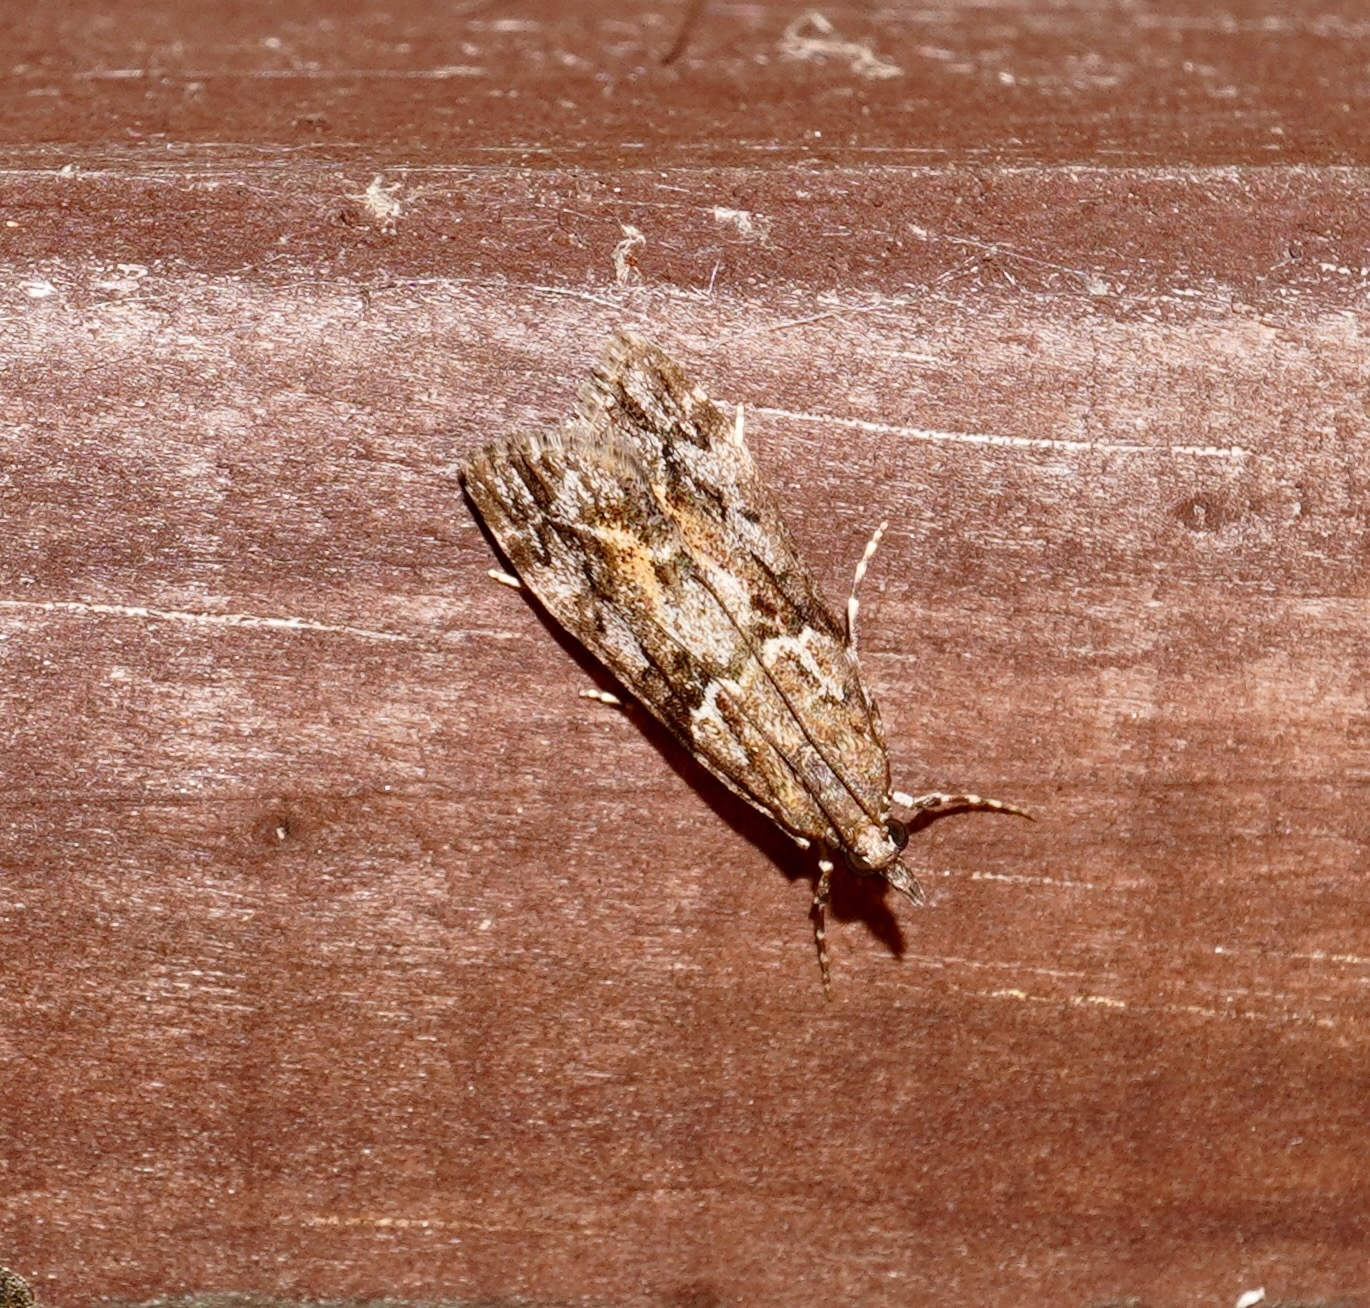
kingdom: Animalia
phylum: Arthropoda
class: Insecta
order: Lepidoptera
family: Crambidae
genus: Eudonia
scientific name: Eudonia submarginalis
